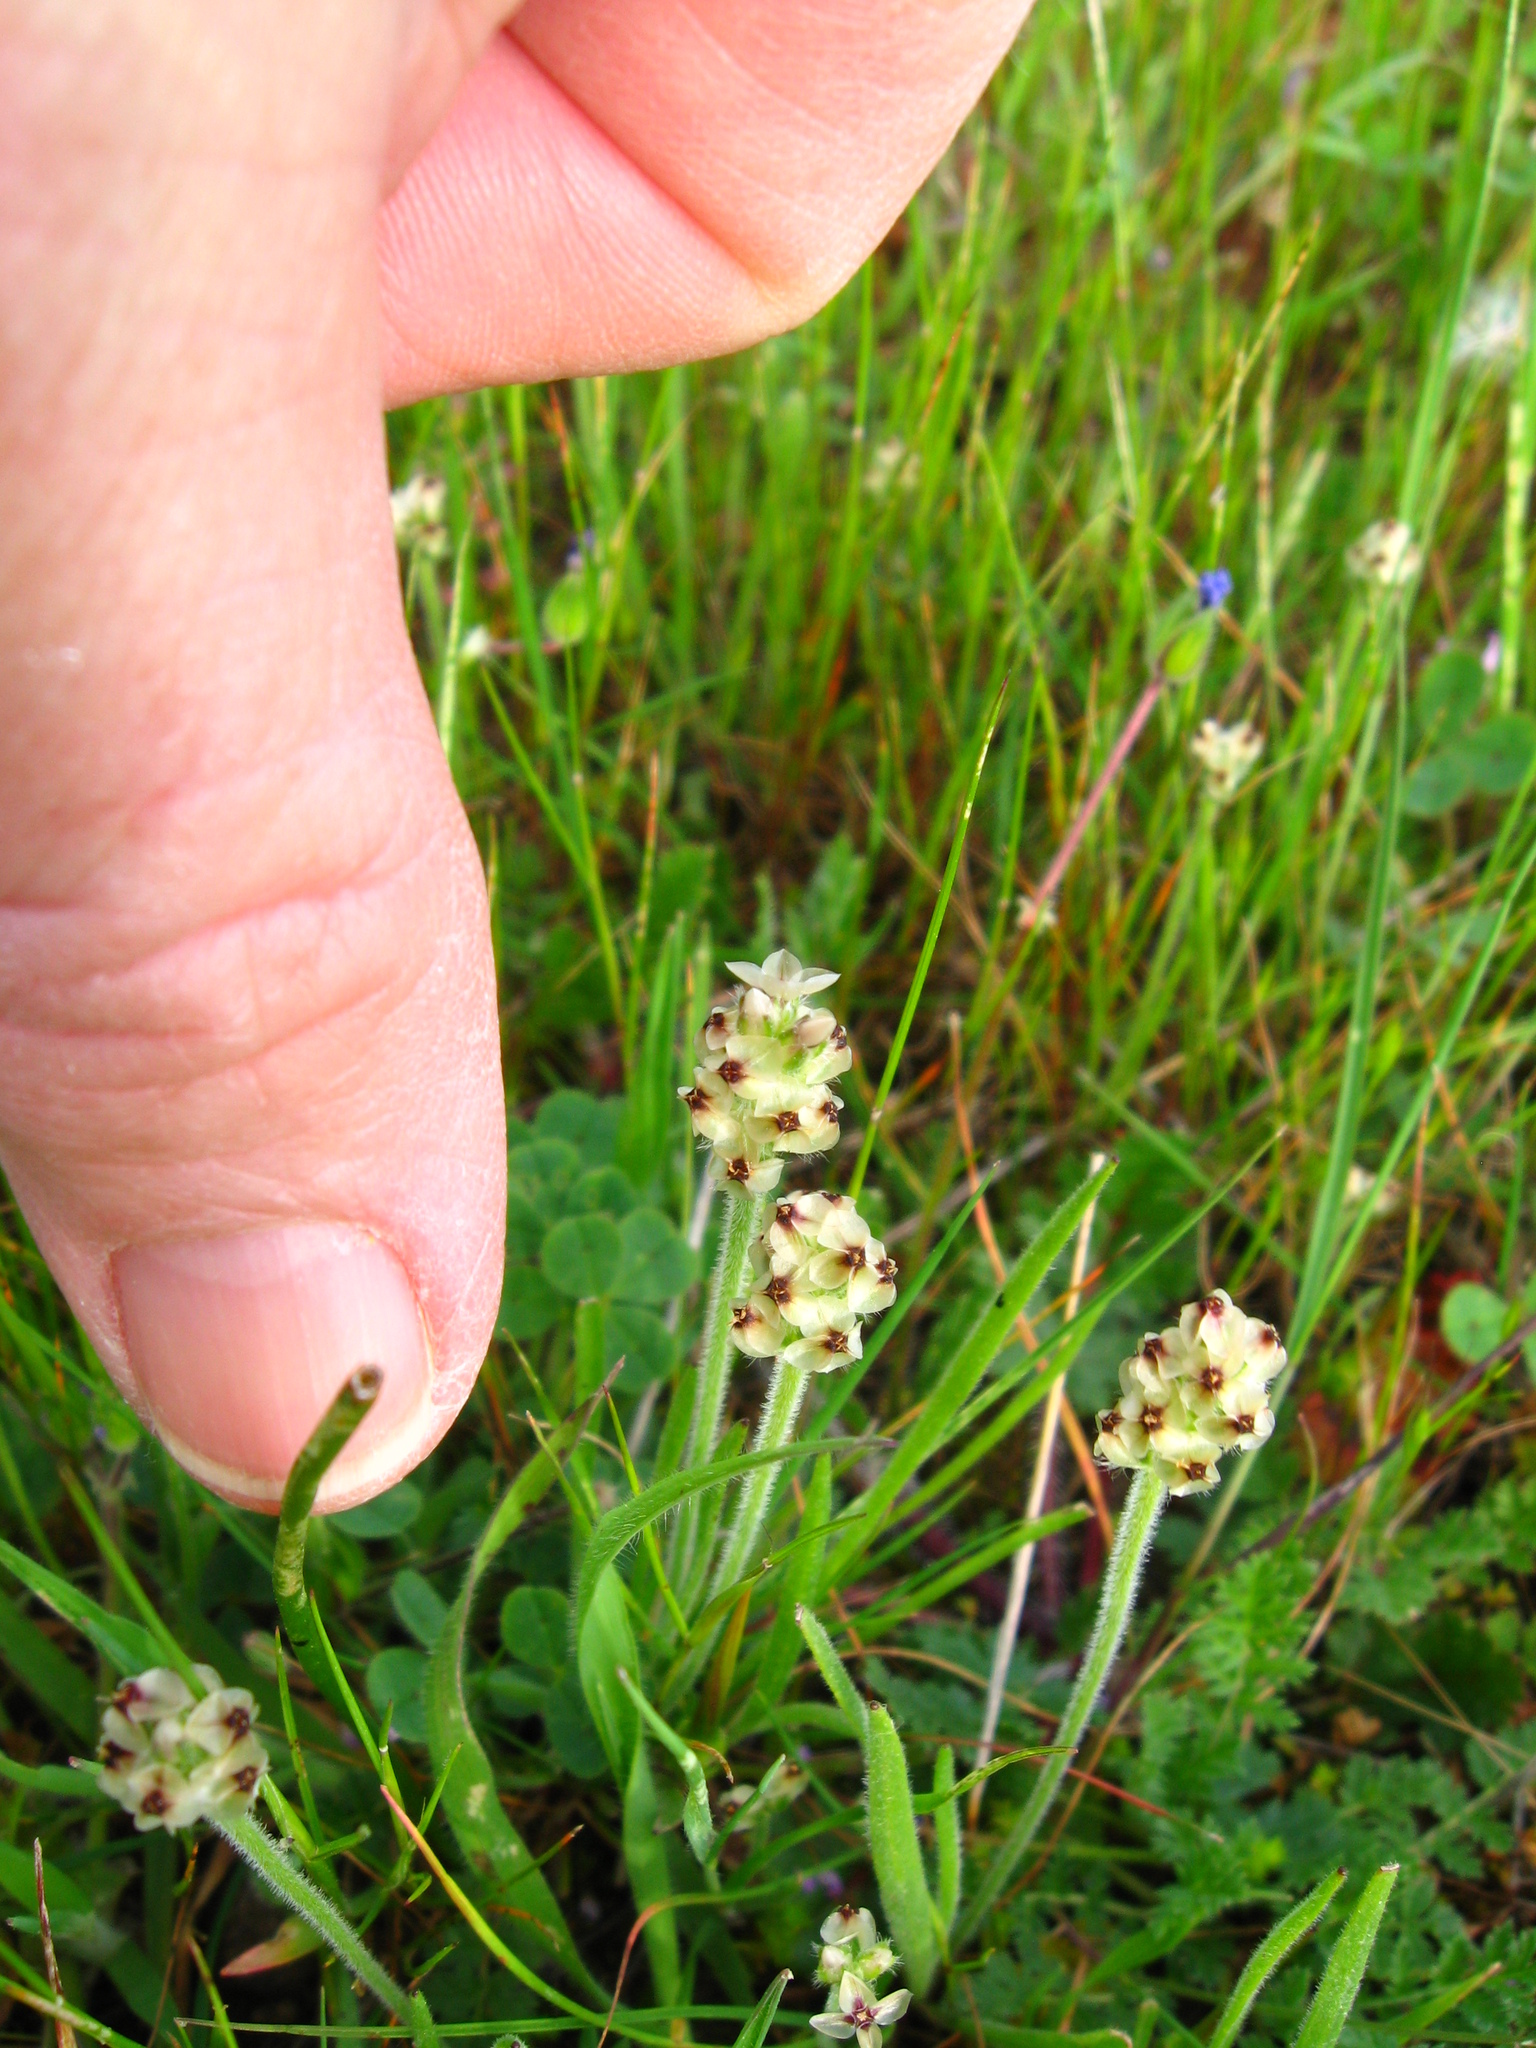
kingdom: Plantae
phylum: Tracheophyta
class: Magnoliopsida
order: Lamiales
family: Plantaginaceae
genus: Plantago
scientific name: Plantago erecta
